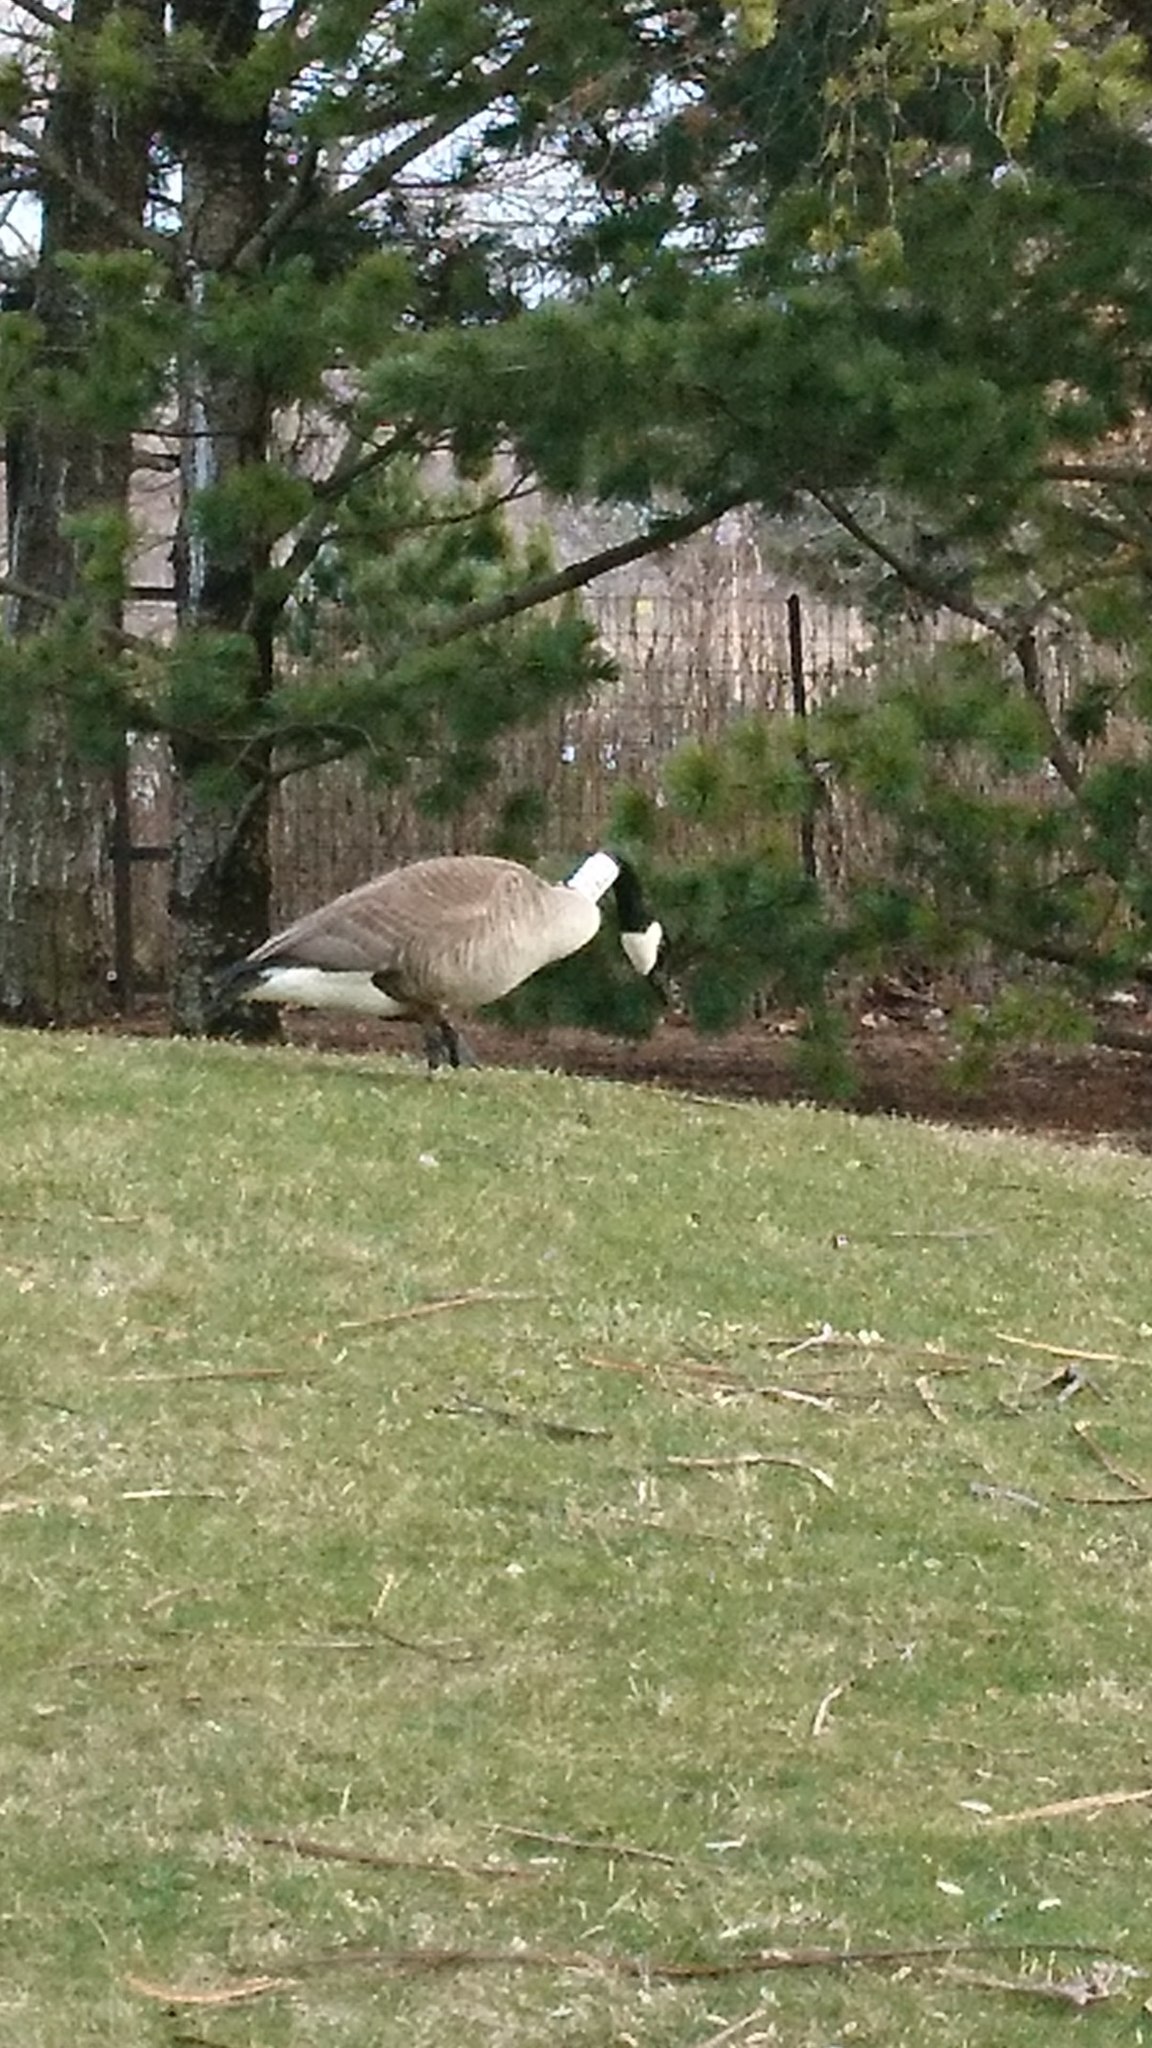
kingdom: Animalia
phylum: Chordata
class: Aves
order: Anseriformes
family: Anatidae
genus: Branta
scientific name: Branta canadensis
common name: Canada goose
